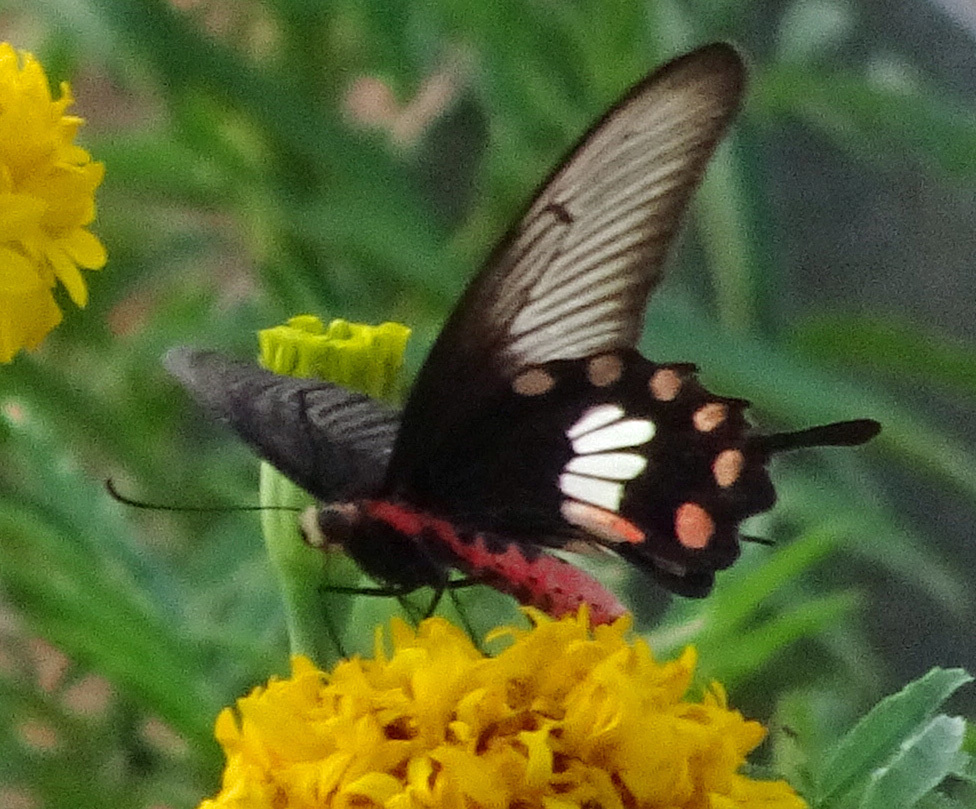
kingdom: Animalia
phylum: Arthropoda
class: Insecta
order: Lepidoptera
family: Papilionidae
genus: Pachliopta
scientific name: Pachliopta aristolochiae
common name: Common rose
